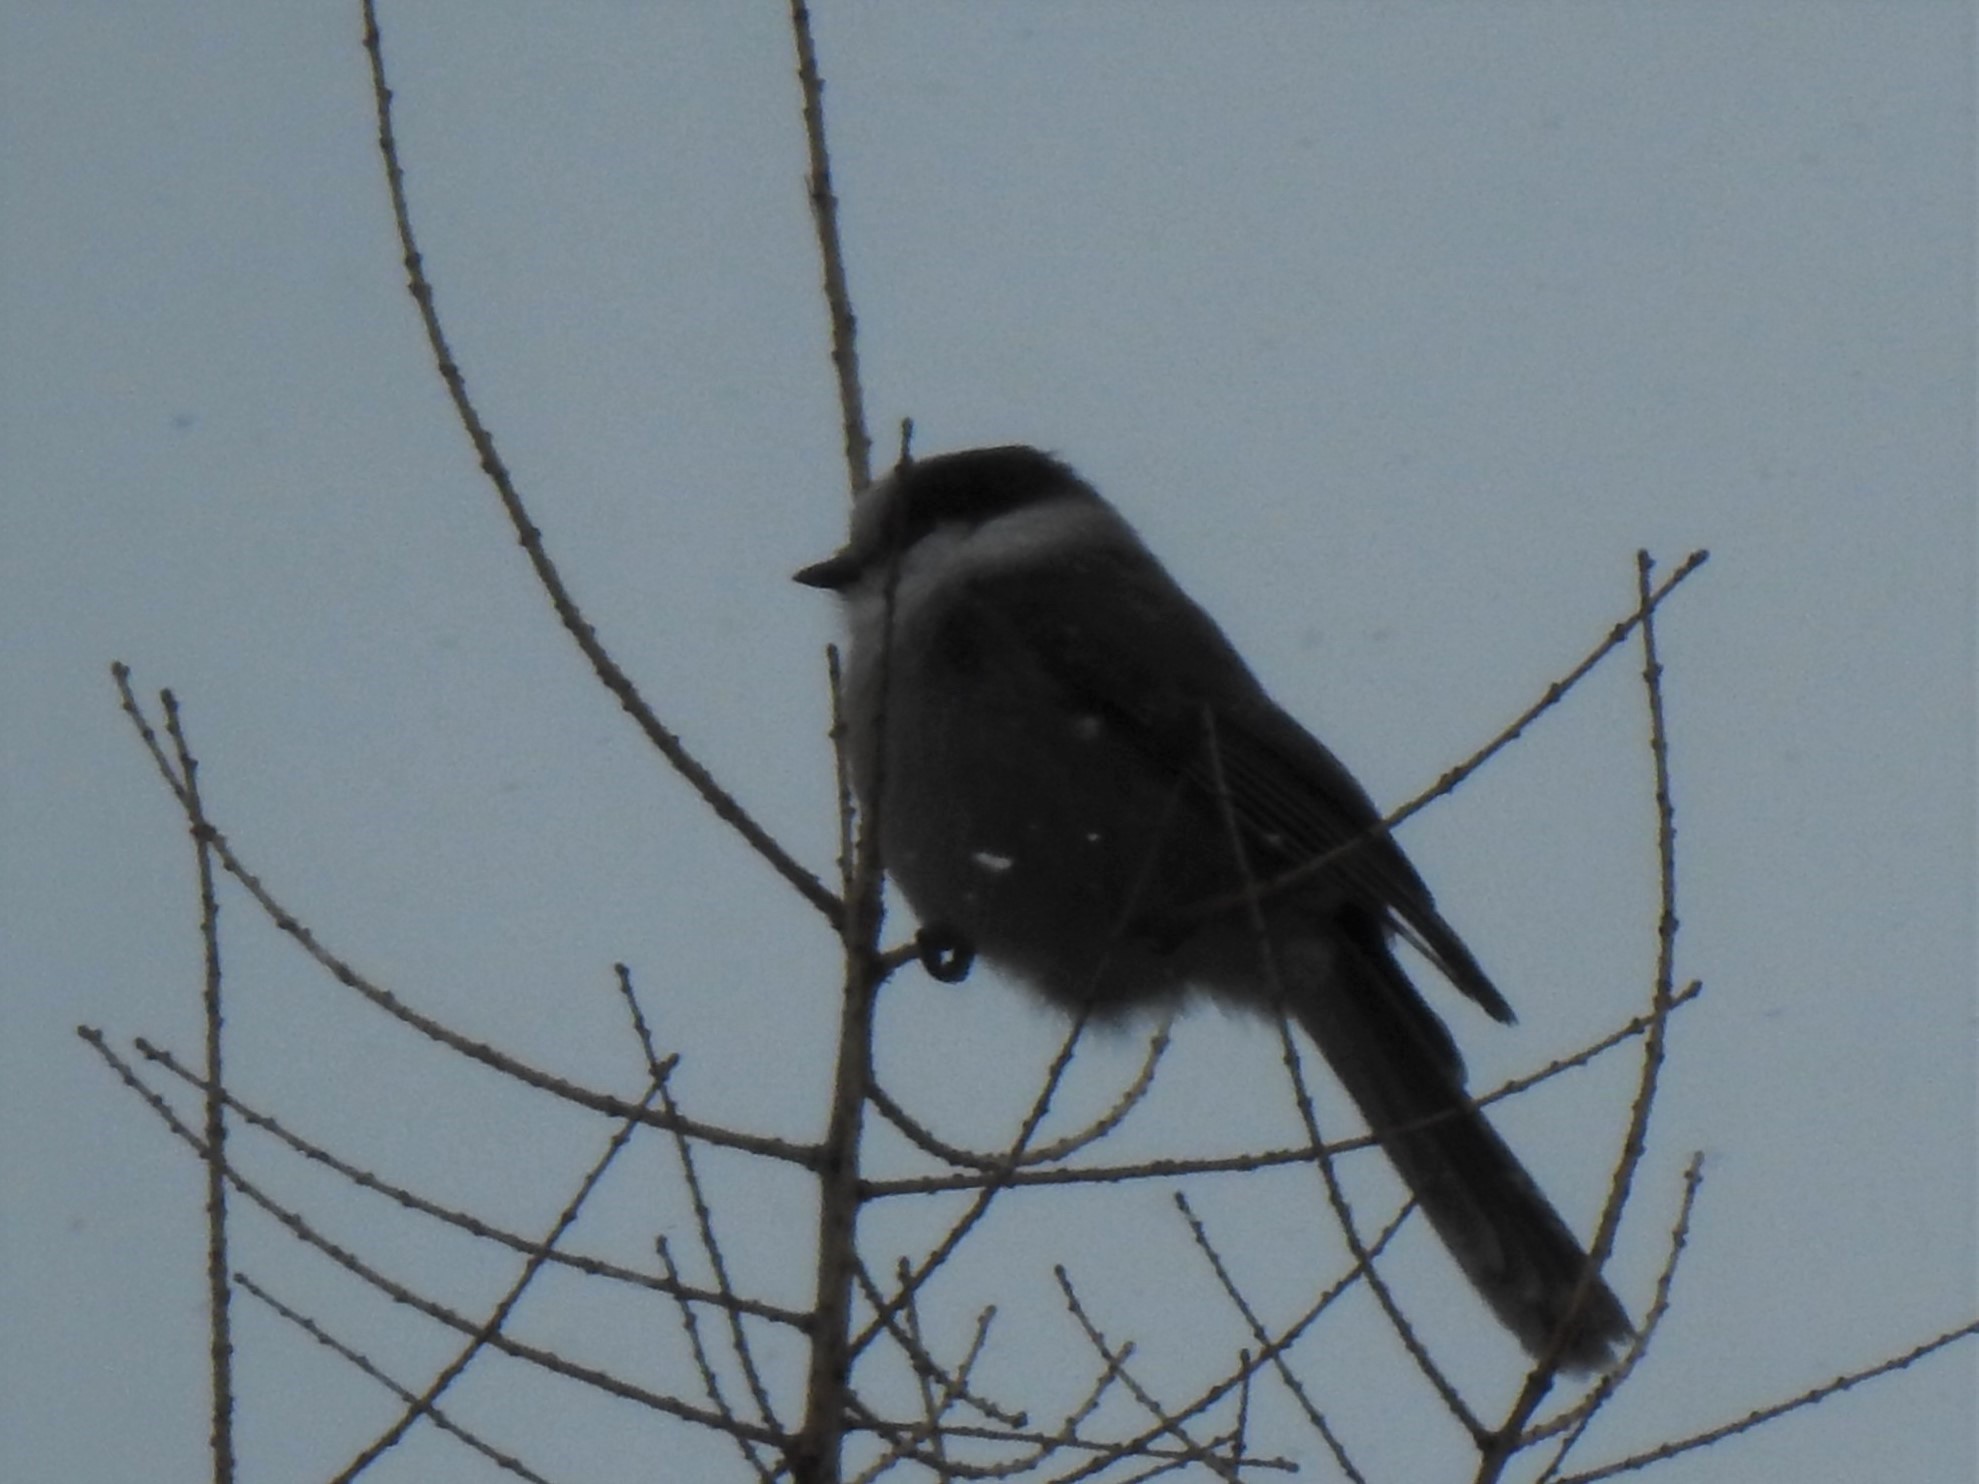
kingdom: Animalia
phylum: Chordata
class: Aves
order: Passeriformes
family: Corvidae
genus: Perisoreus
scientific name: Perisoreus canadensis
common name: Gray jay
